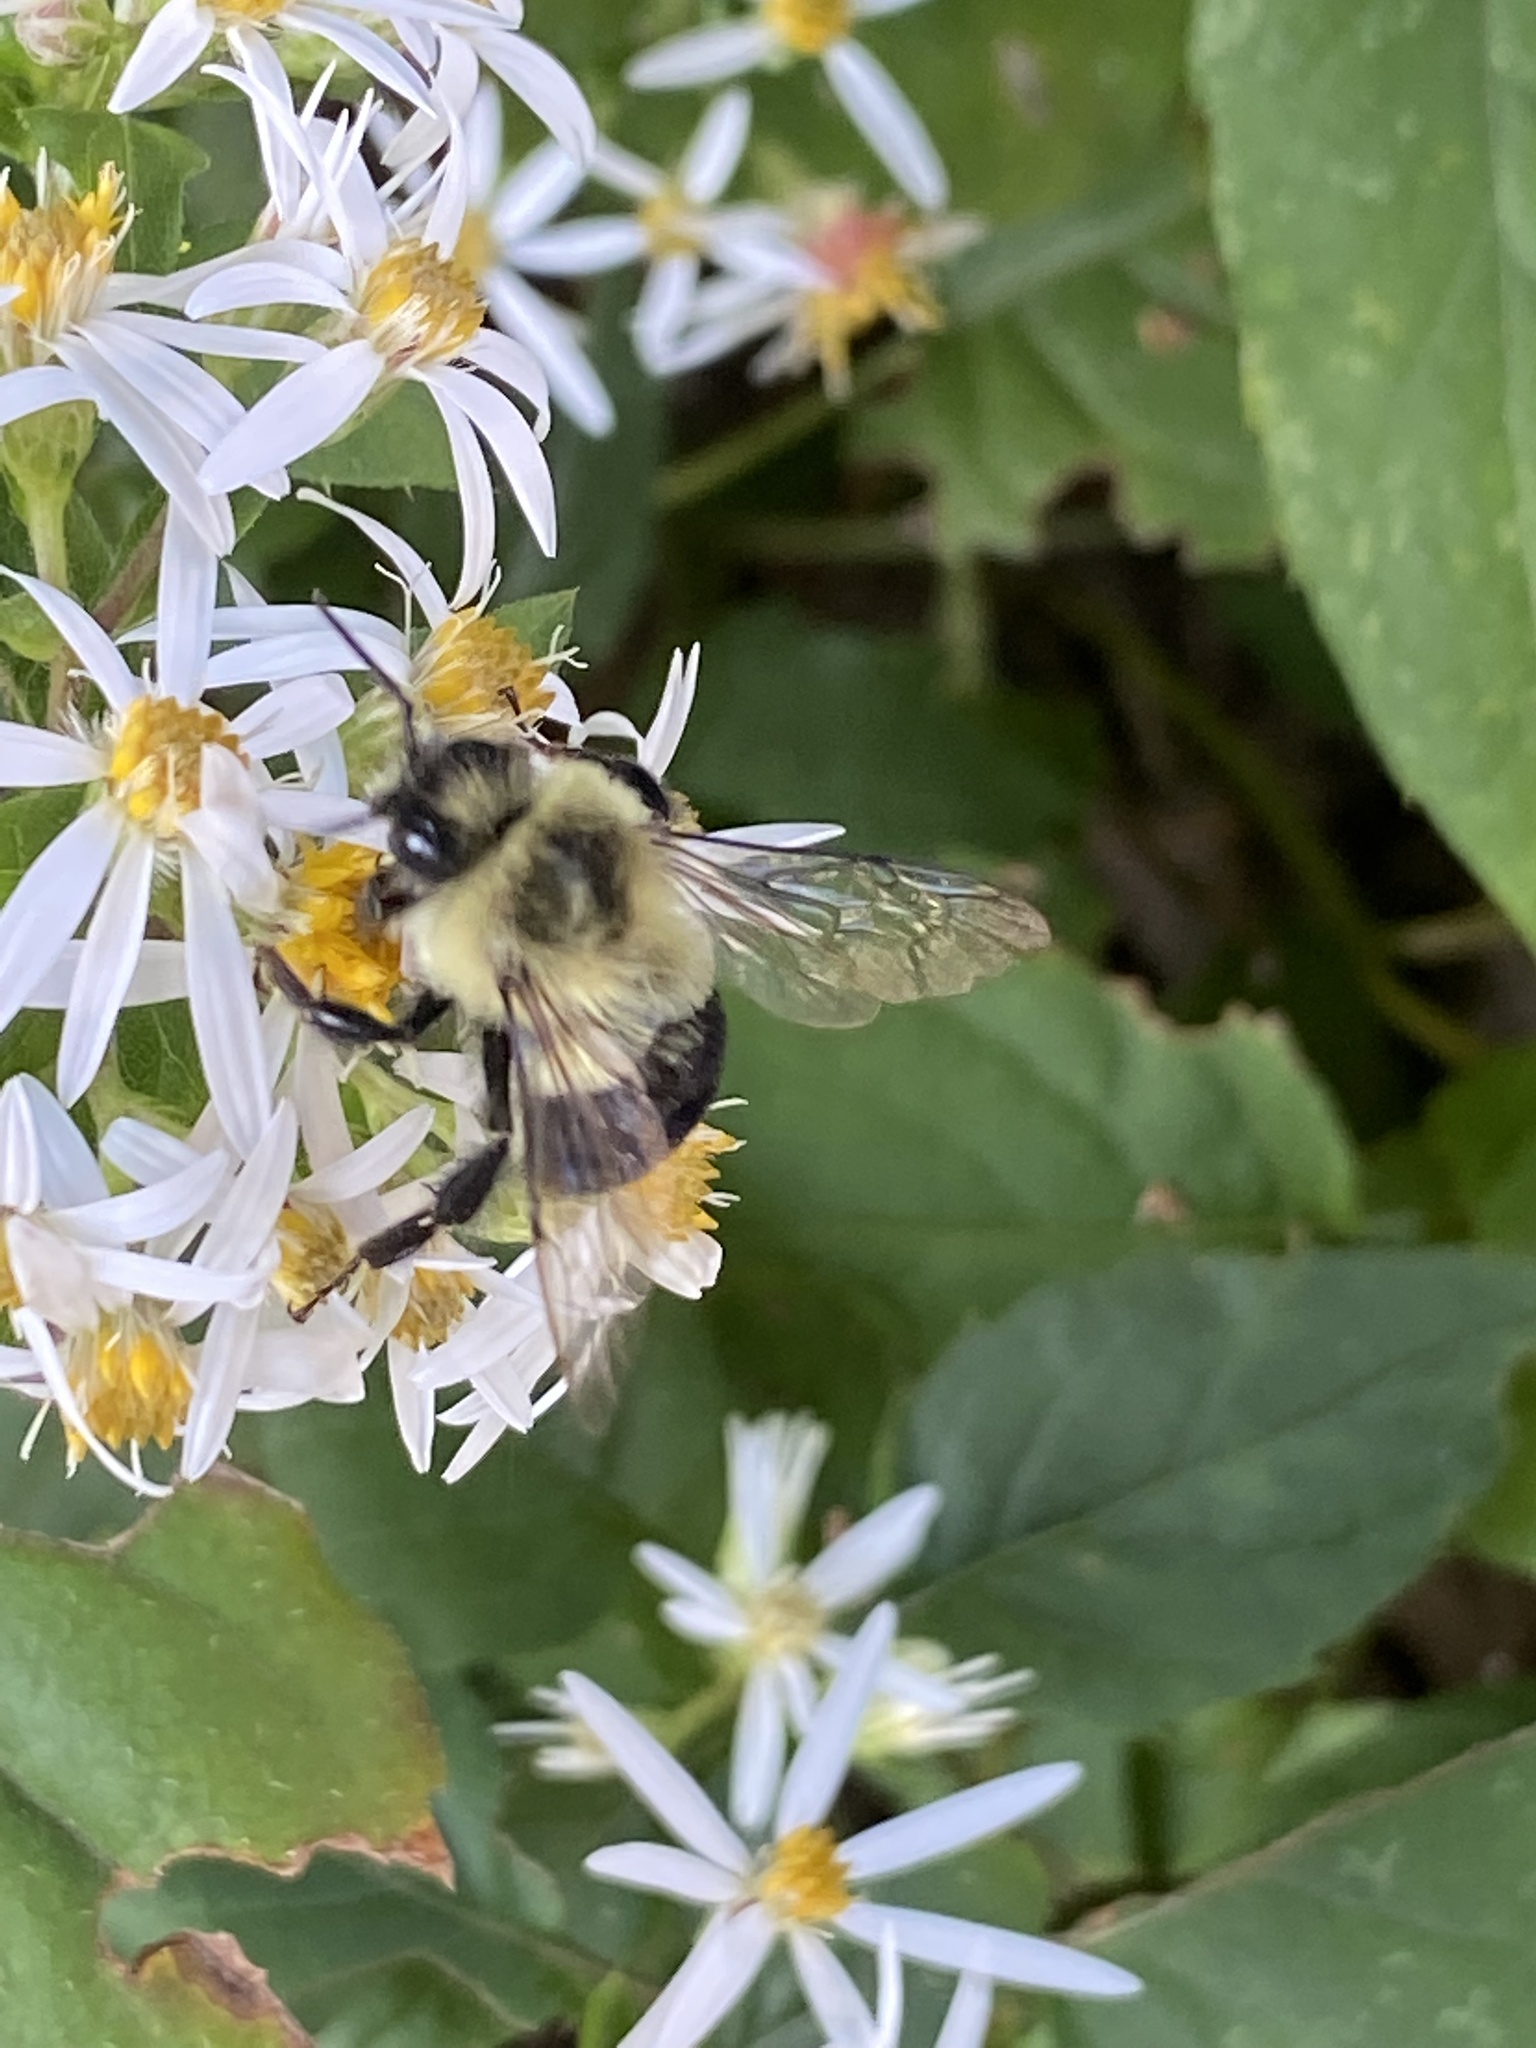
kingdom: Animalia
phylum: Arthropoda
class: Insecta
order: Hymenoptera
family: Apidae
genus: Bombus
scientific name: Bombus impatiens
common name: Common eastern bumble bee
